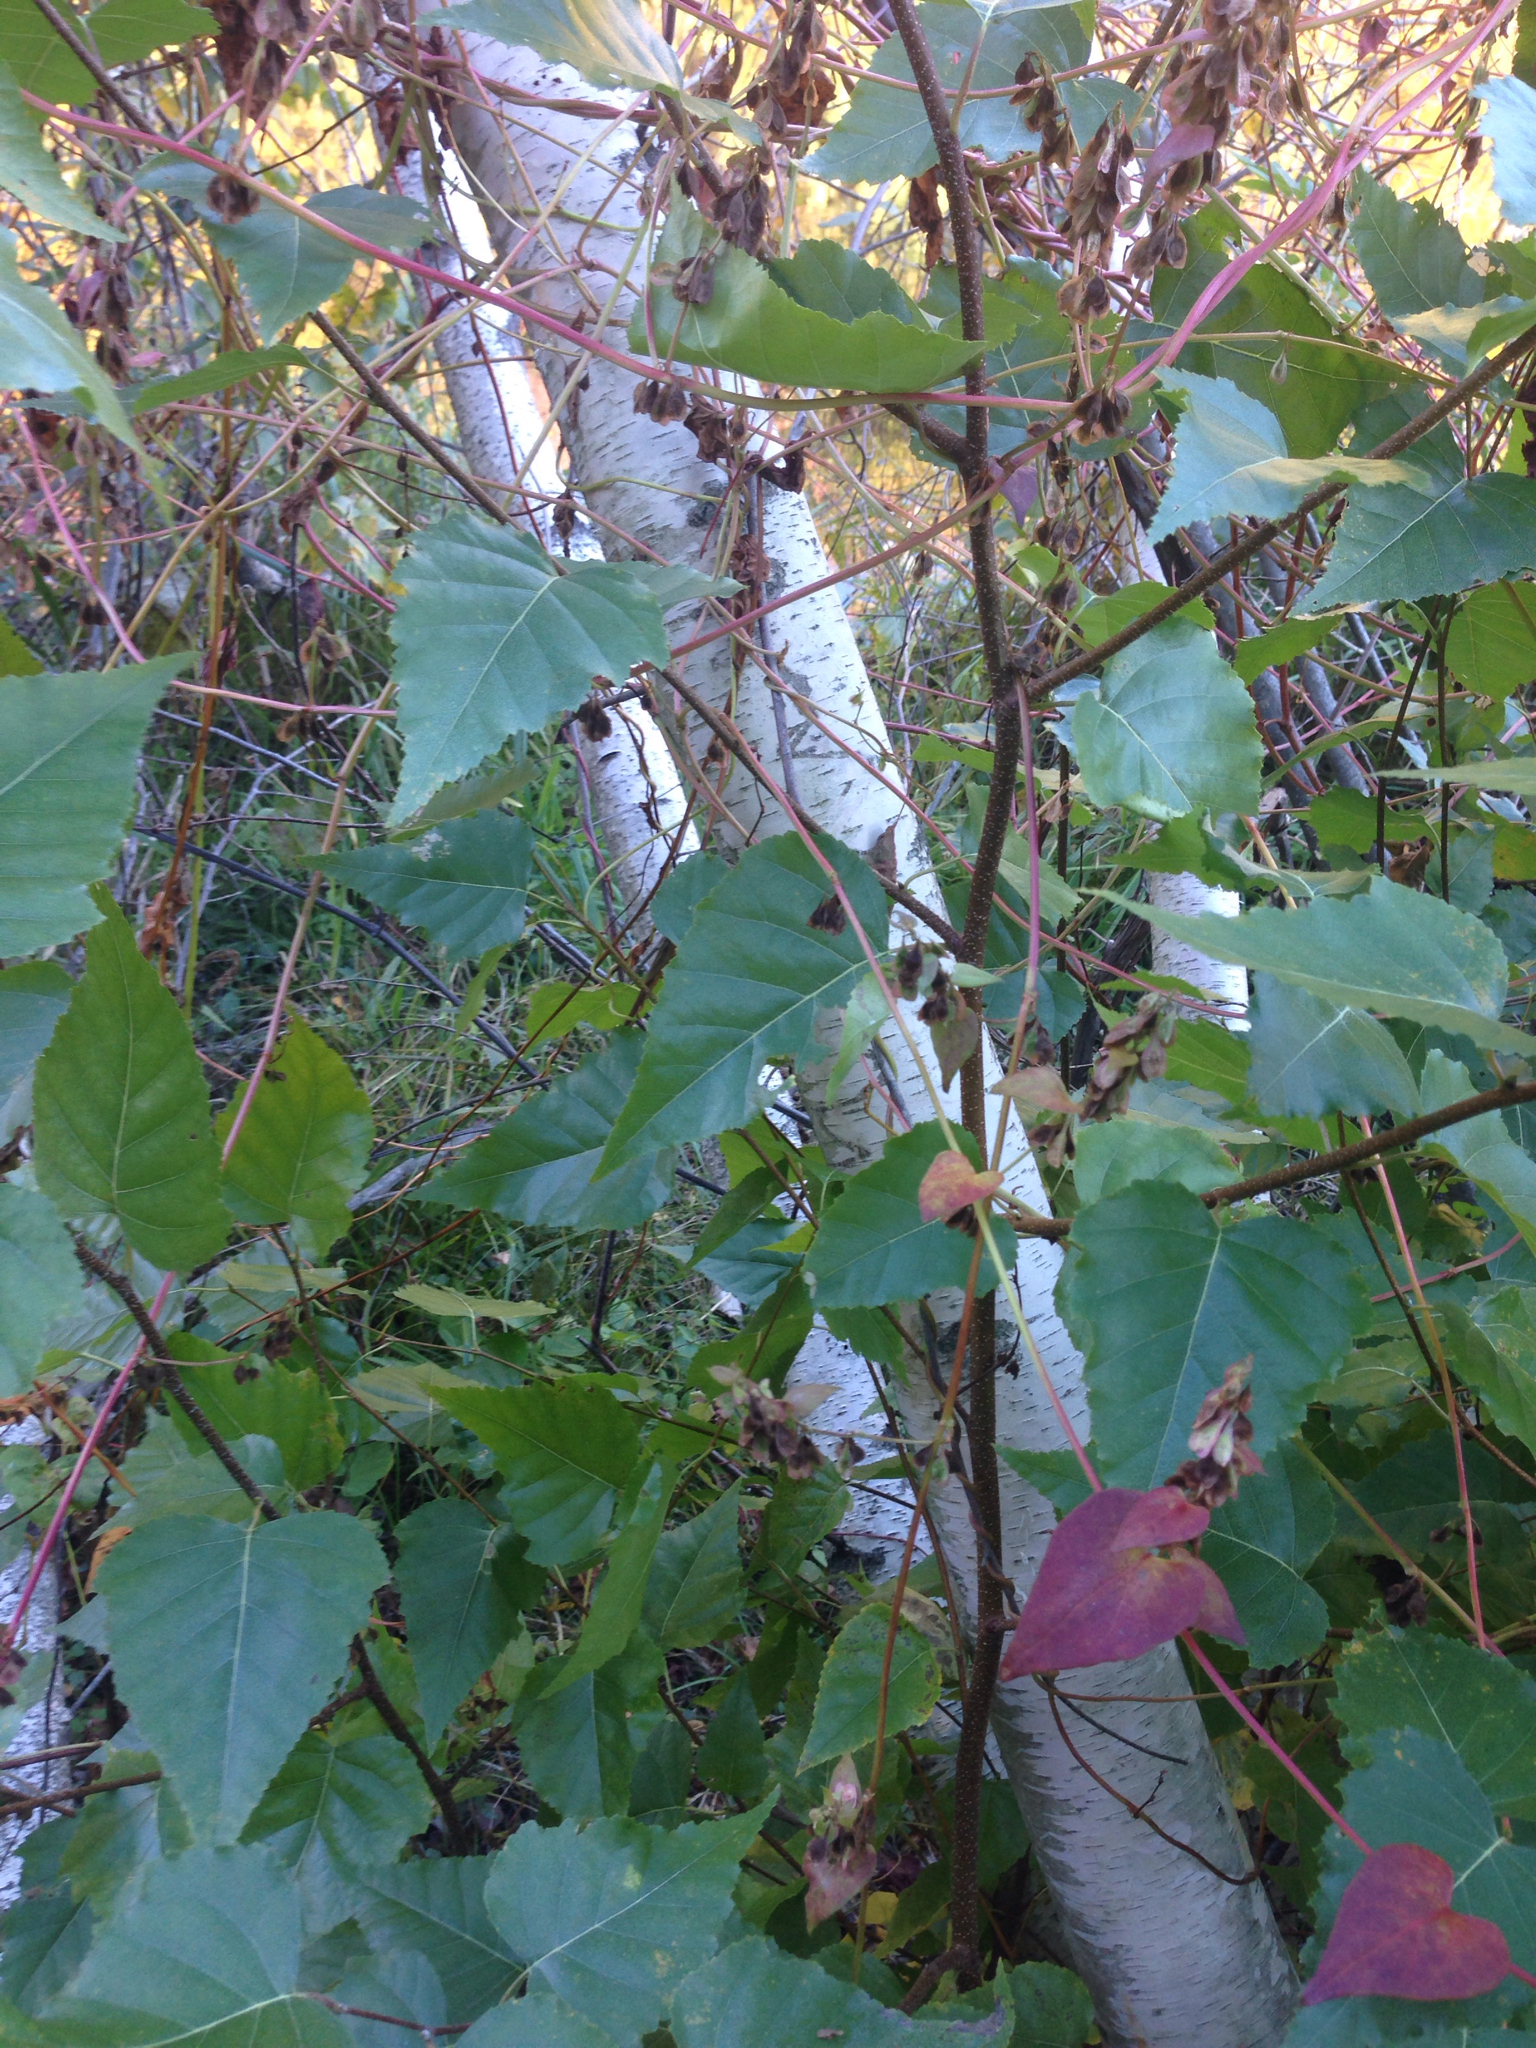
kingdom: Plantae
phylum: Tracheophyta
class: Magnoliopsida
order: Fagales
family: Betulaceae
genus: Betula
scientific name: Betula populifolia
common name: Fire birch
